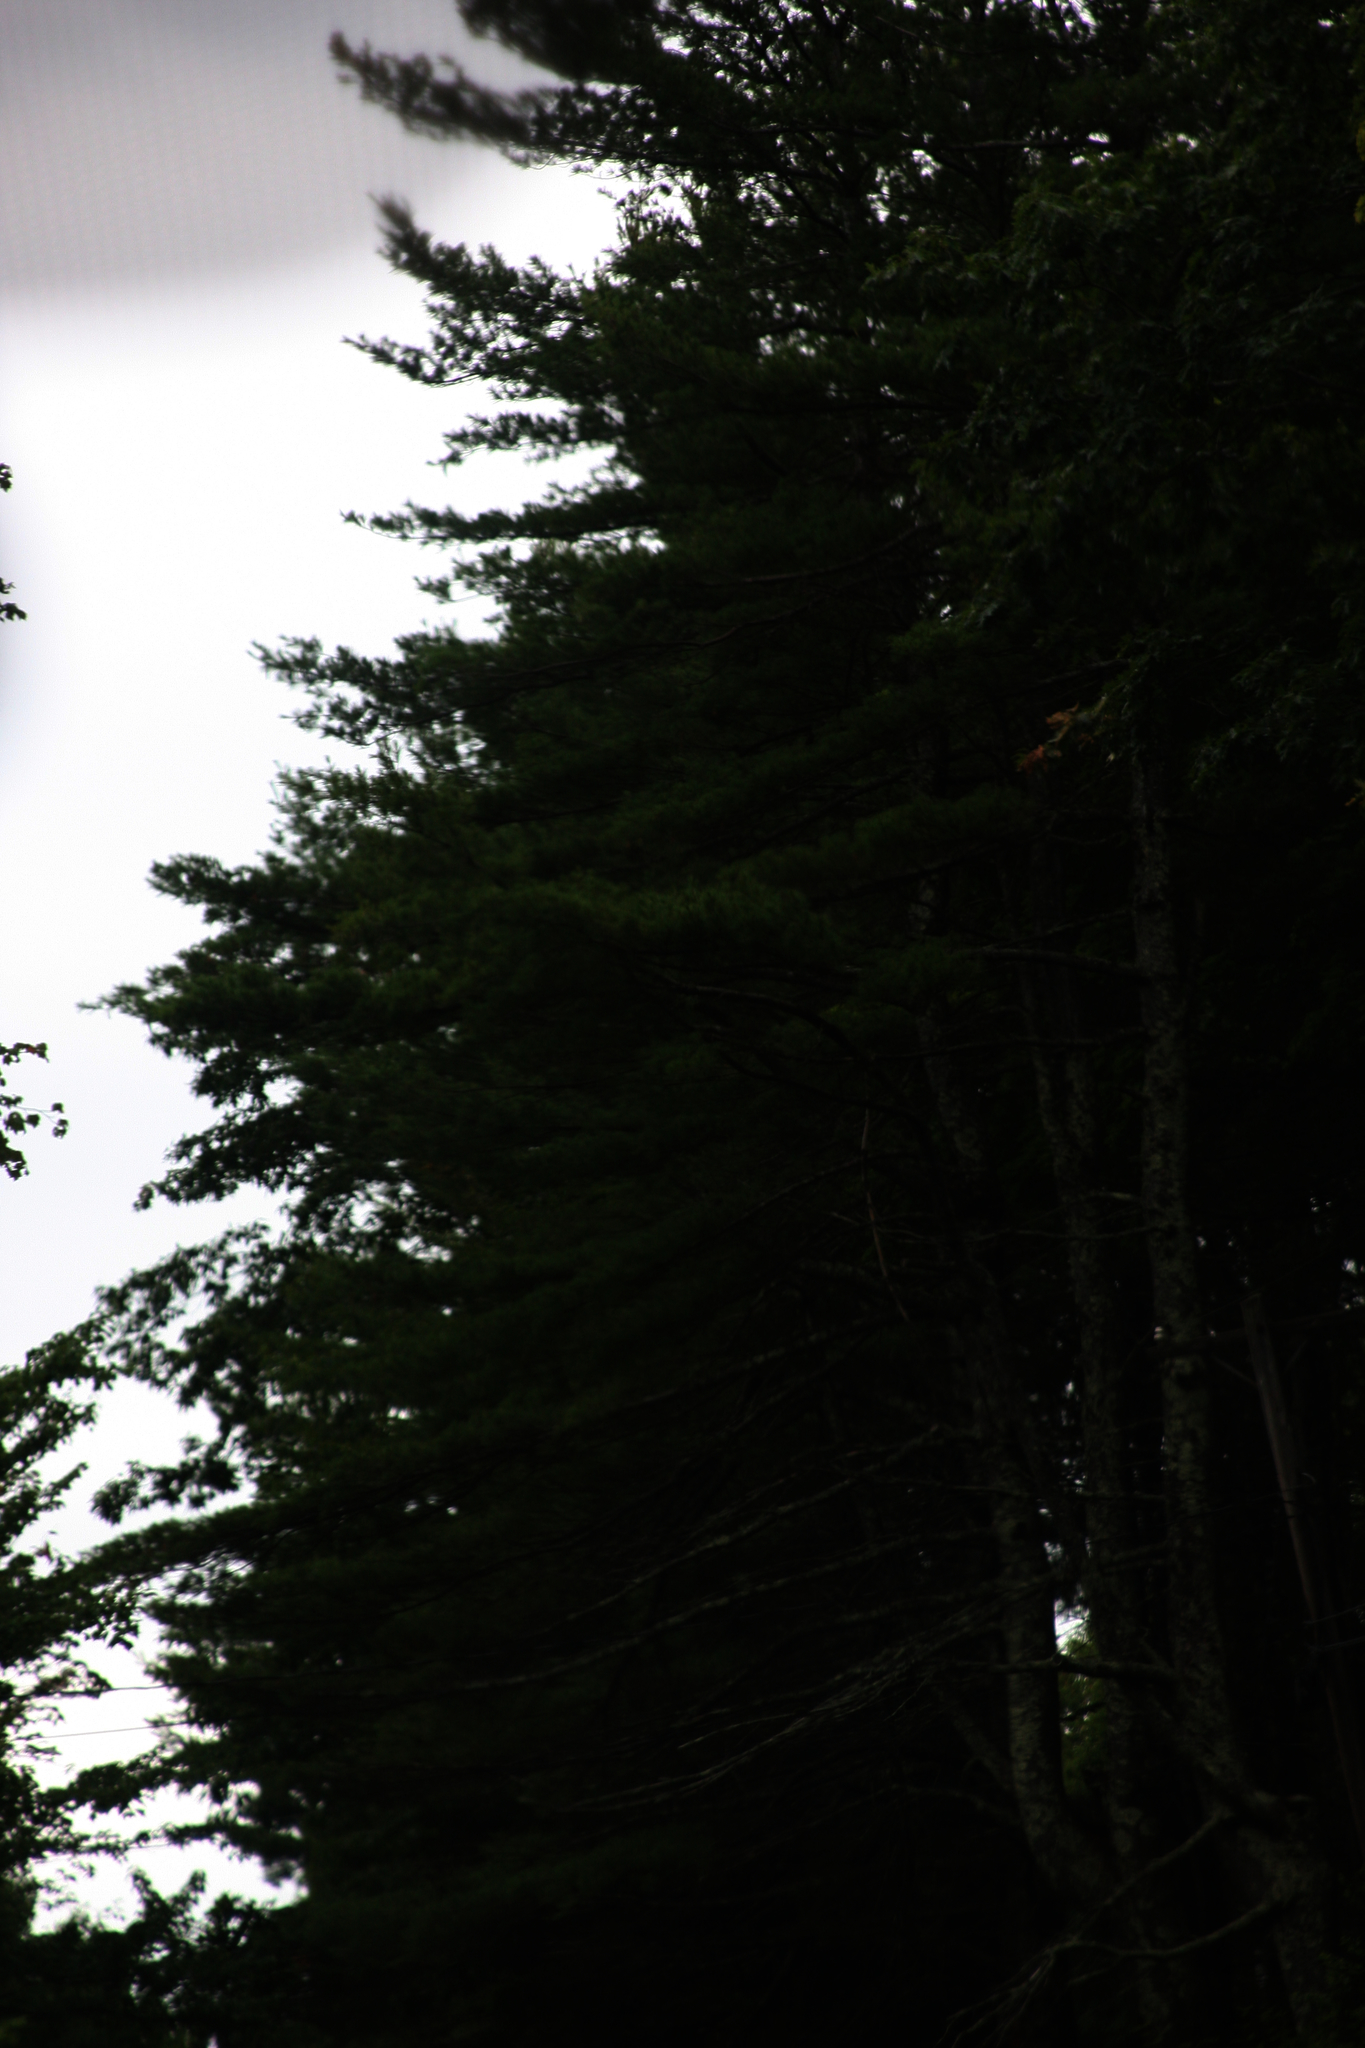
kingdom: Plantae
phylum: Tracheophyta
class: Pinopsida
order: Pinales
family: Pinaceae
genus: Pinus
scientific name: Pinus strobus
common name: Weymouth pine
